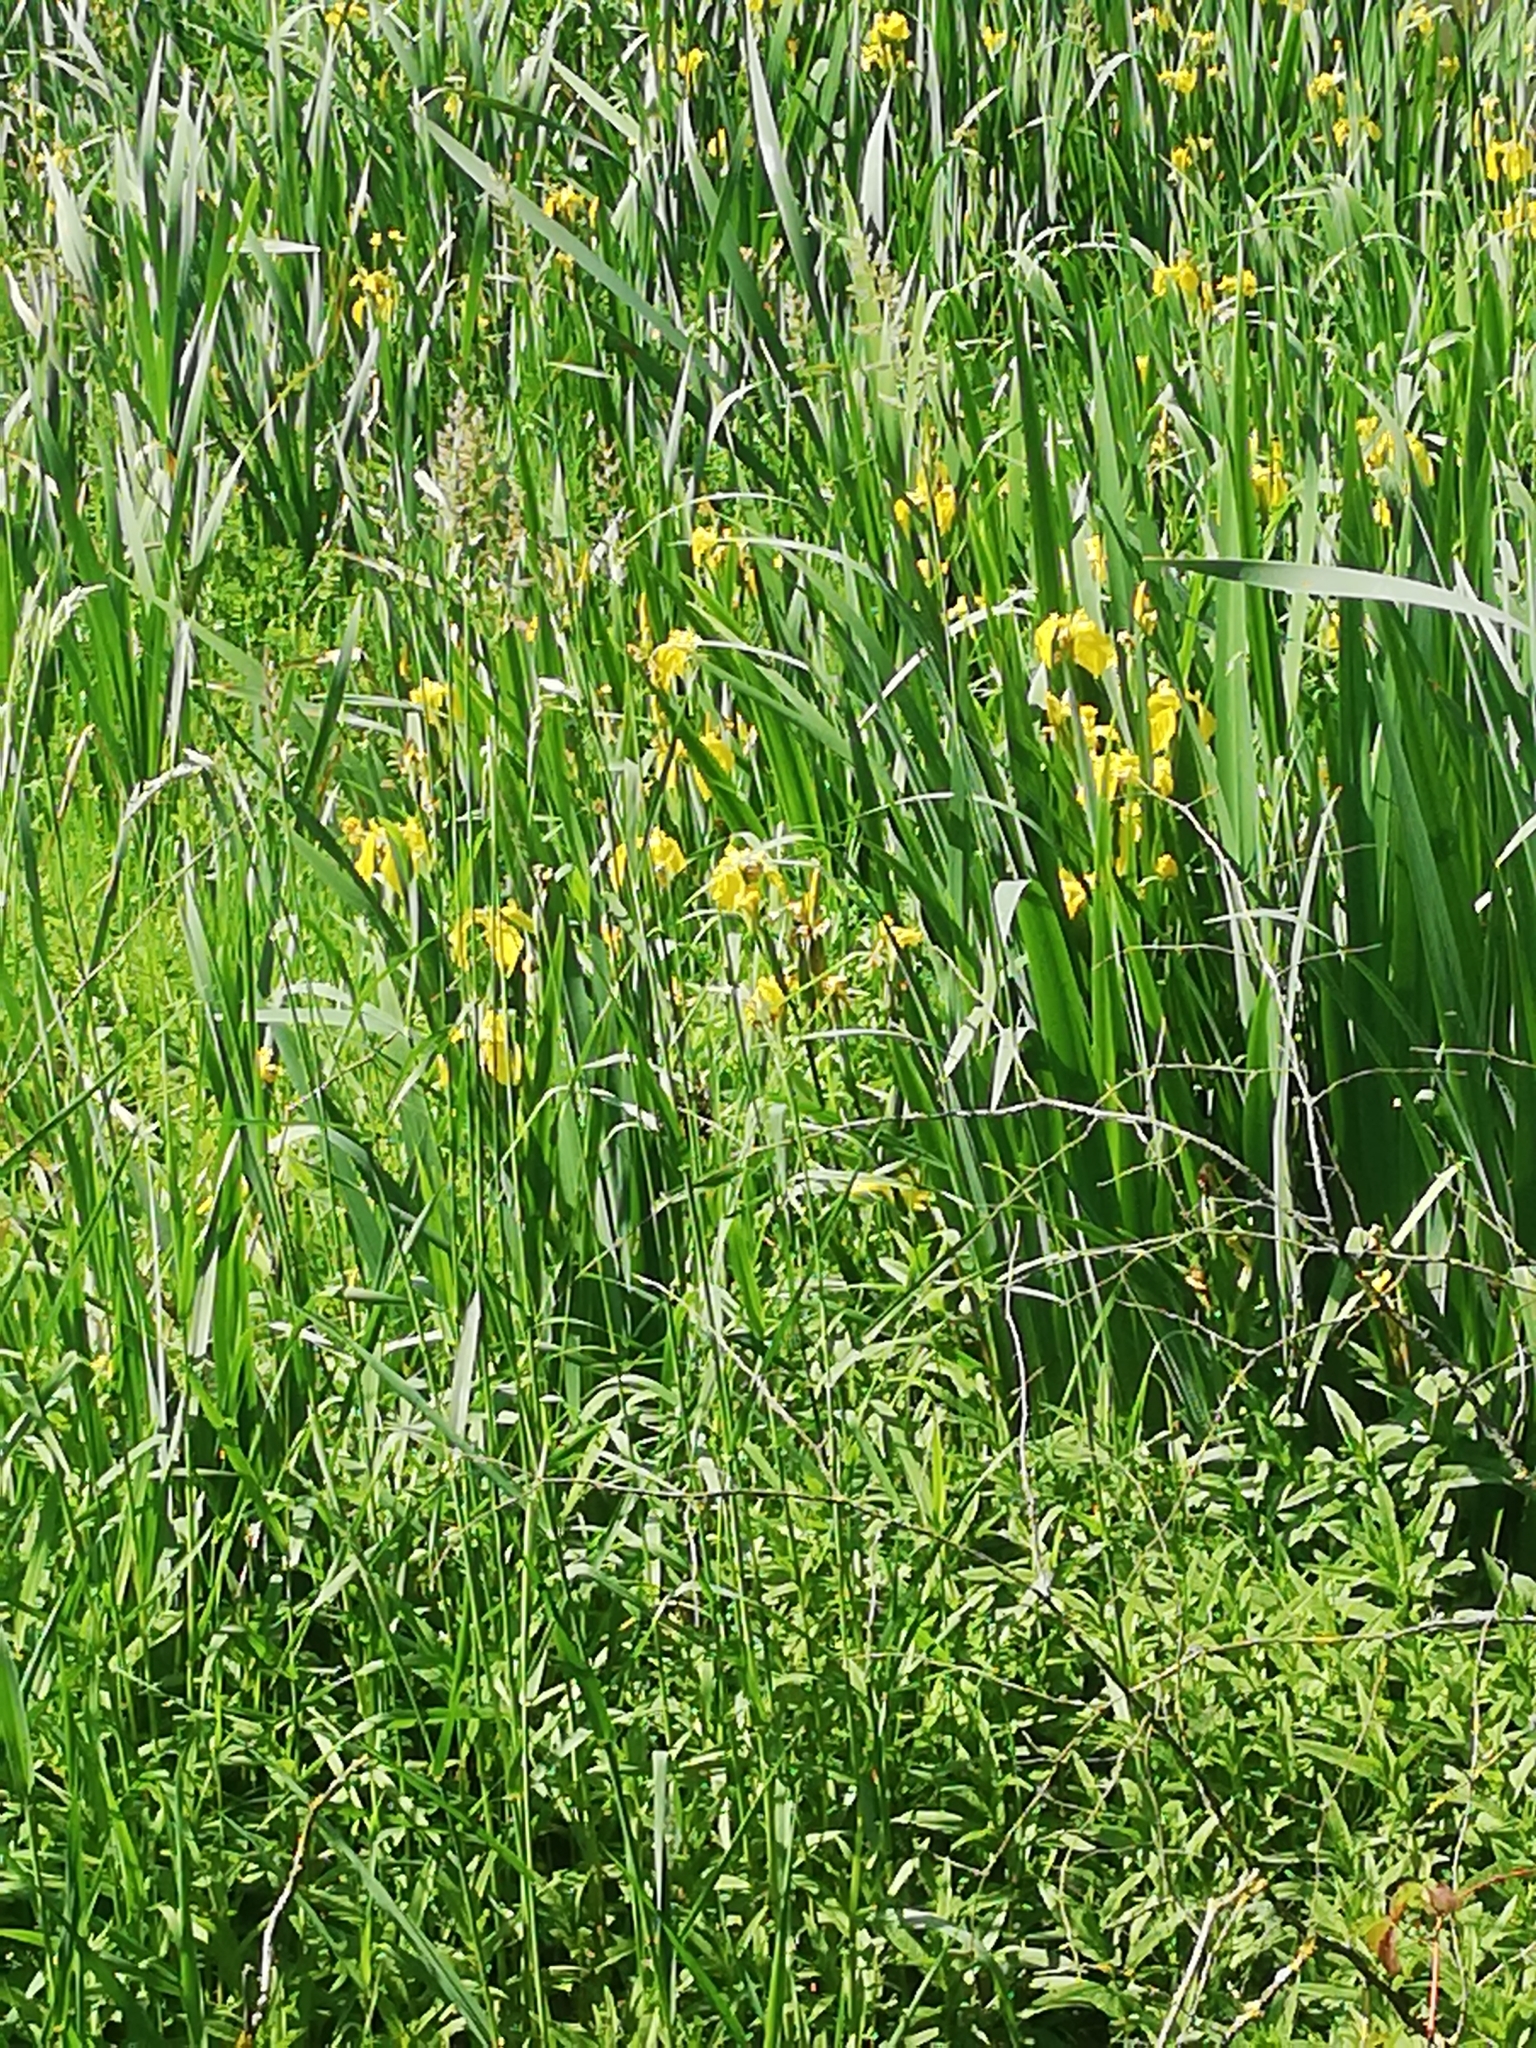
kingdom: Plantae
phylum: Tracheophyta
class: Liliopsida
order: Asparagales
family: Iridaceae
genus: Iris
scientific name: Iris pseudacorus
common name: Yellow flag
